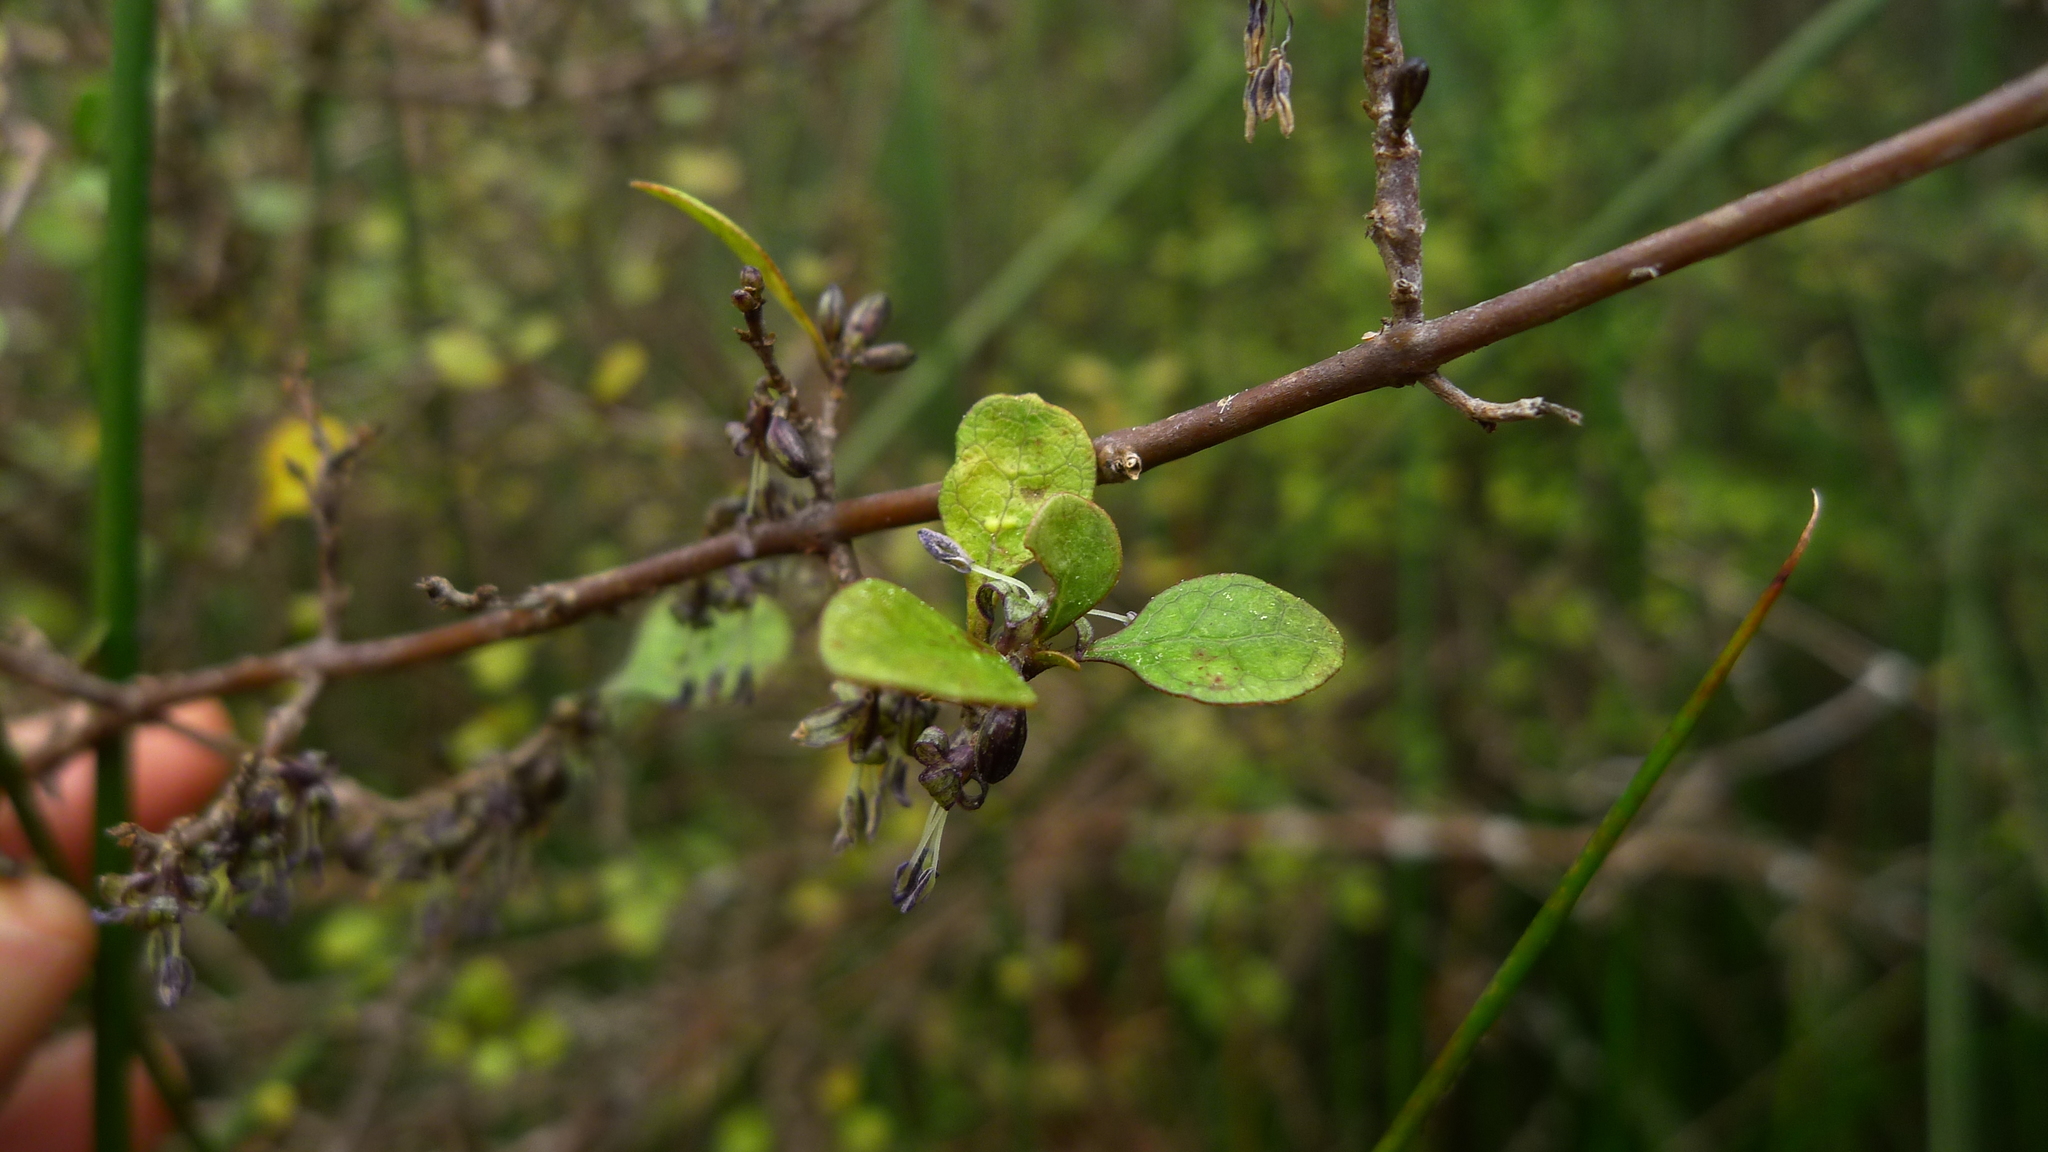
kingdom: Plantae
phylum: Tracheophyta
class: Magnoliopsida
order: Gentianales
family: Rubiaceae
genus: Coprosma
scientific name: Coprosma tenuicaulis
